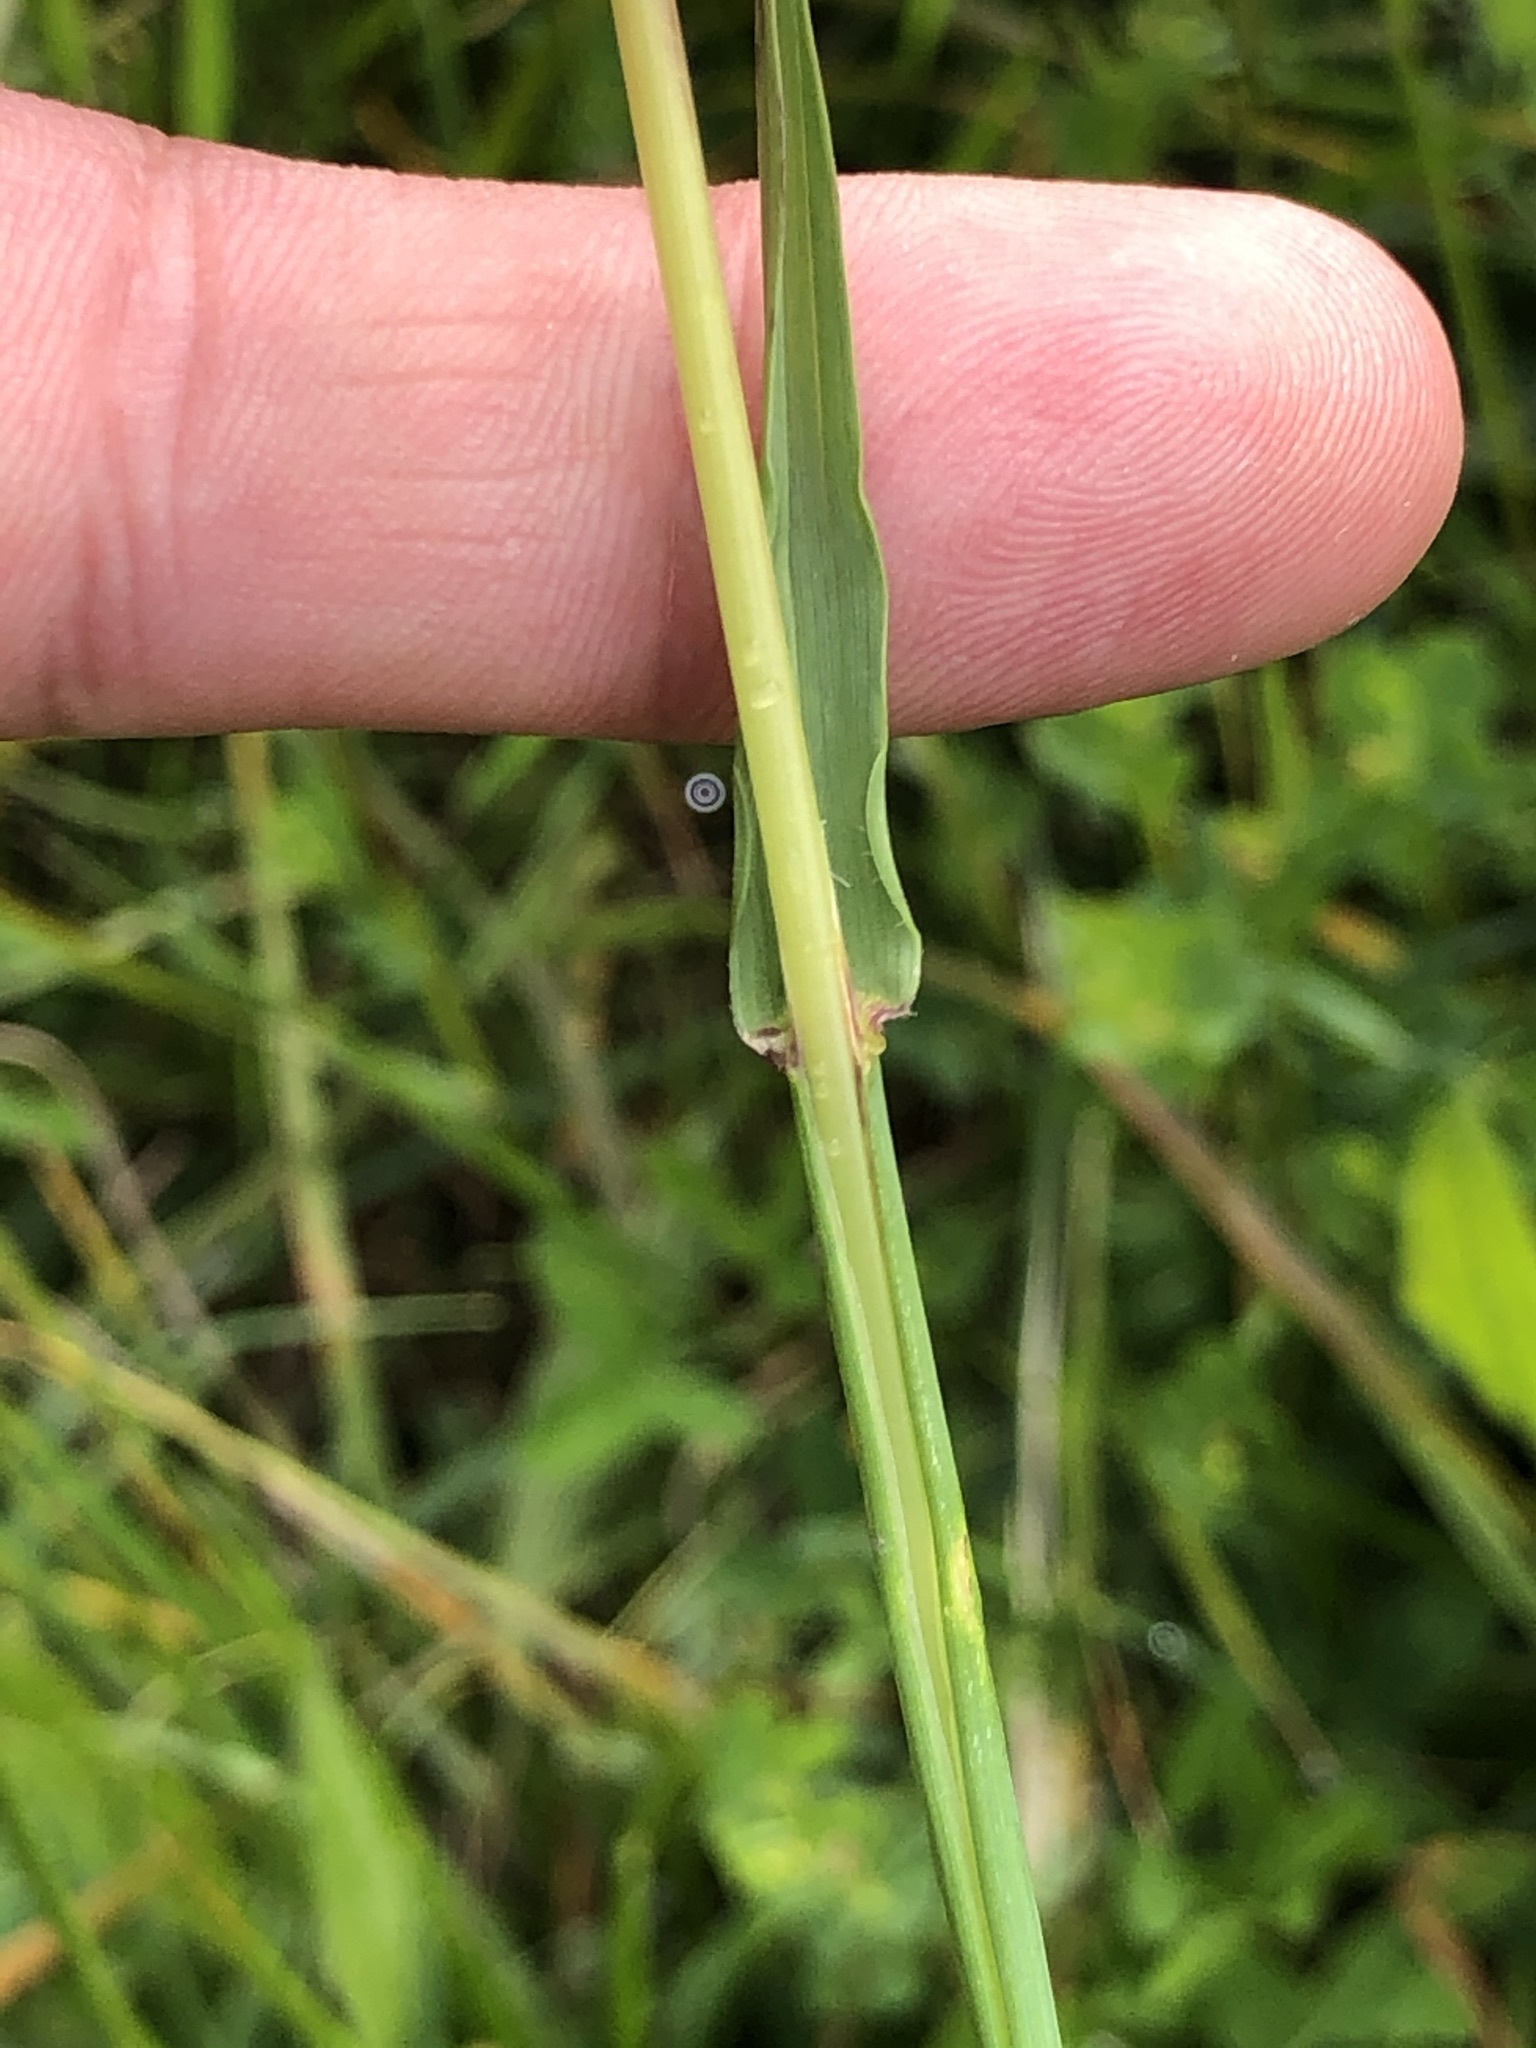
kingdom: Plantae
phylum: Tracheophyta
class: Liliopsida
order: Poales
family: Poaceae
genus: Avenula
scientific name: Avenula pubescens
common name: Downy alpine oatgrass
